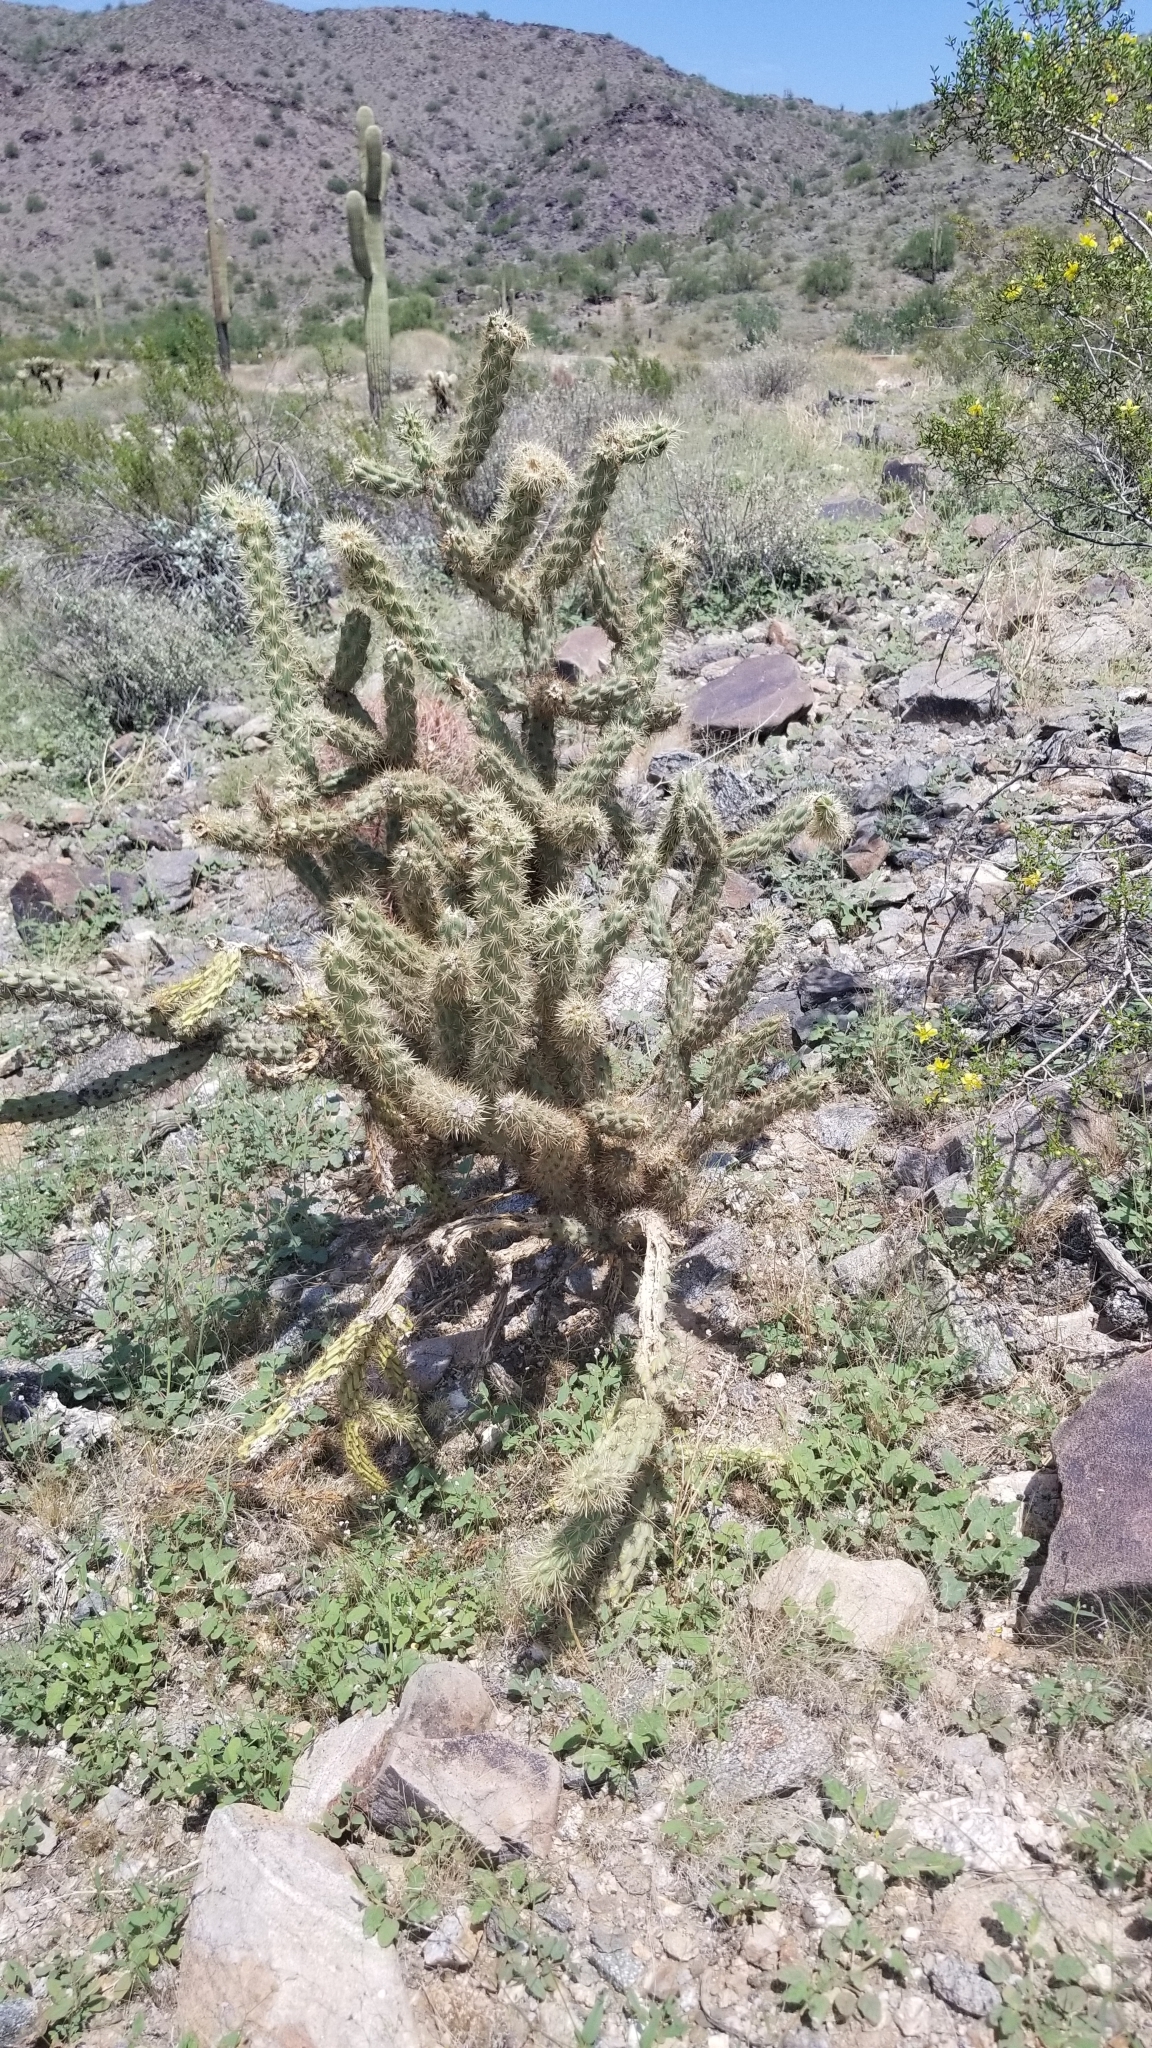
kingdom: Plantae
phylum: Tracheophyta
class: Magnoliopsida
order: Caryophyllales
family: Cactaceae
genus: Cylindropuntia
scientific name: Cylindropuntia acanthocarpa
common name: Buckhorn cholla
